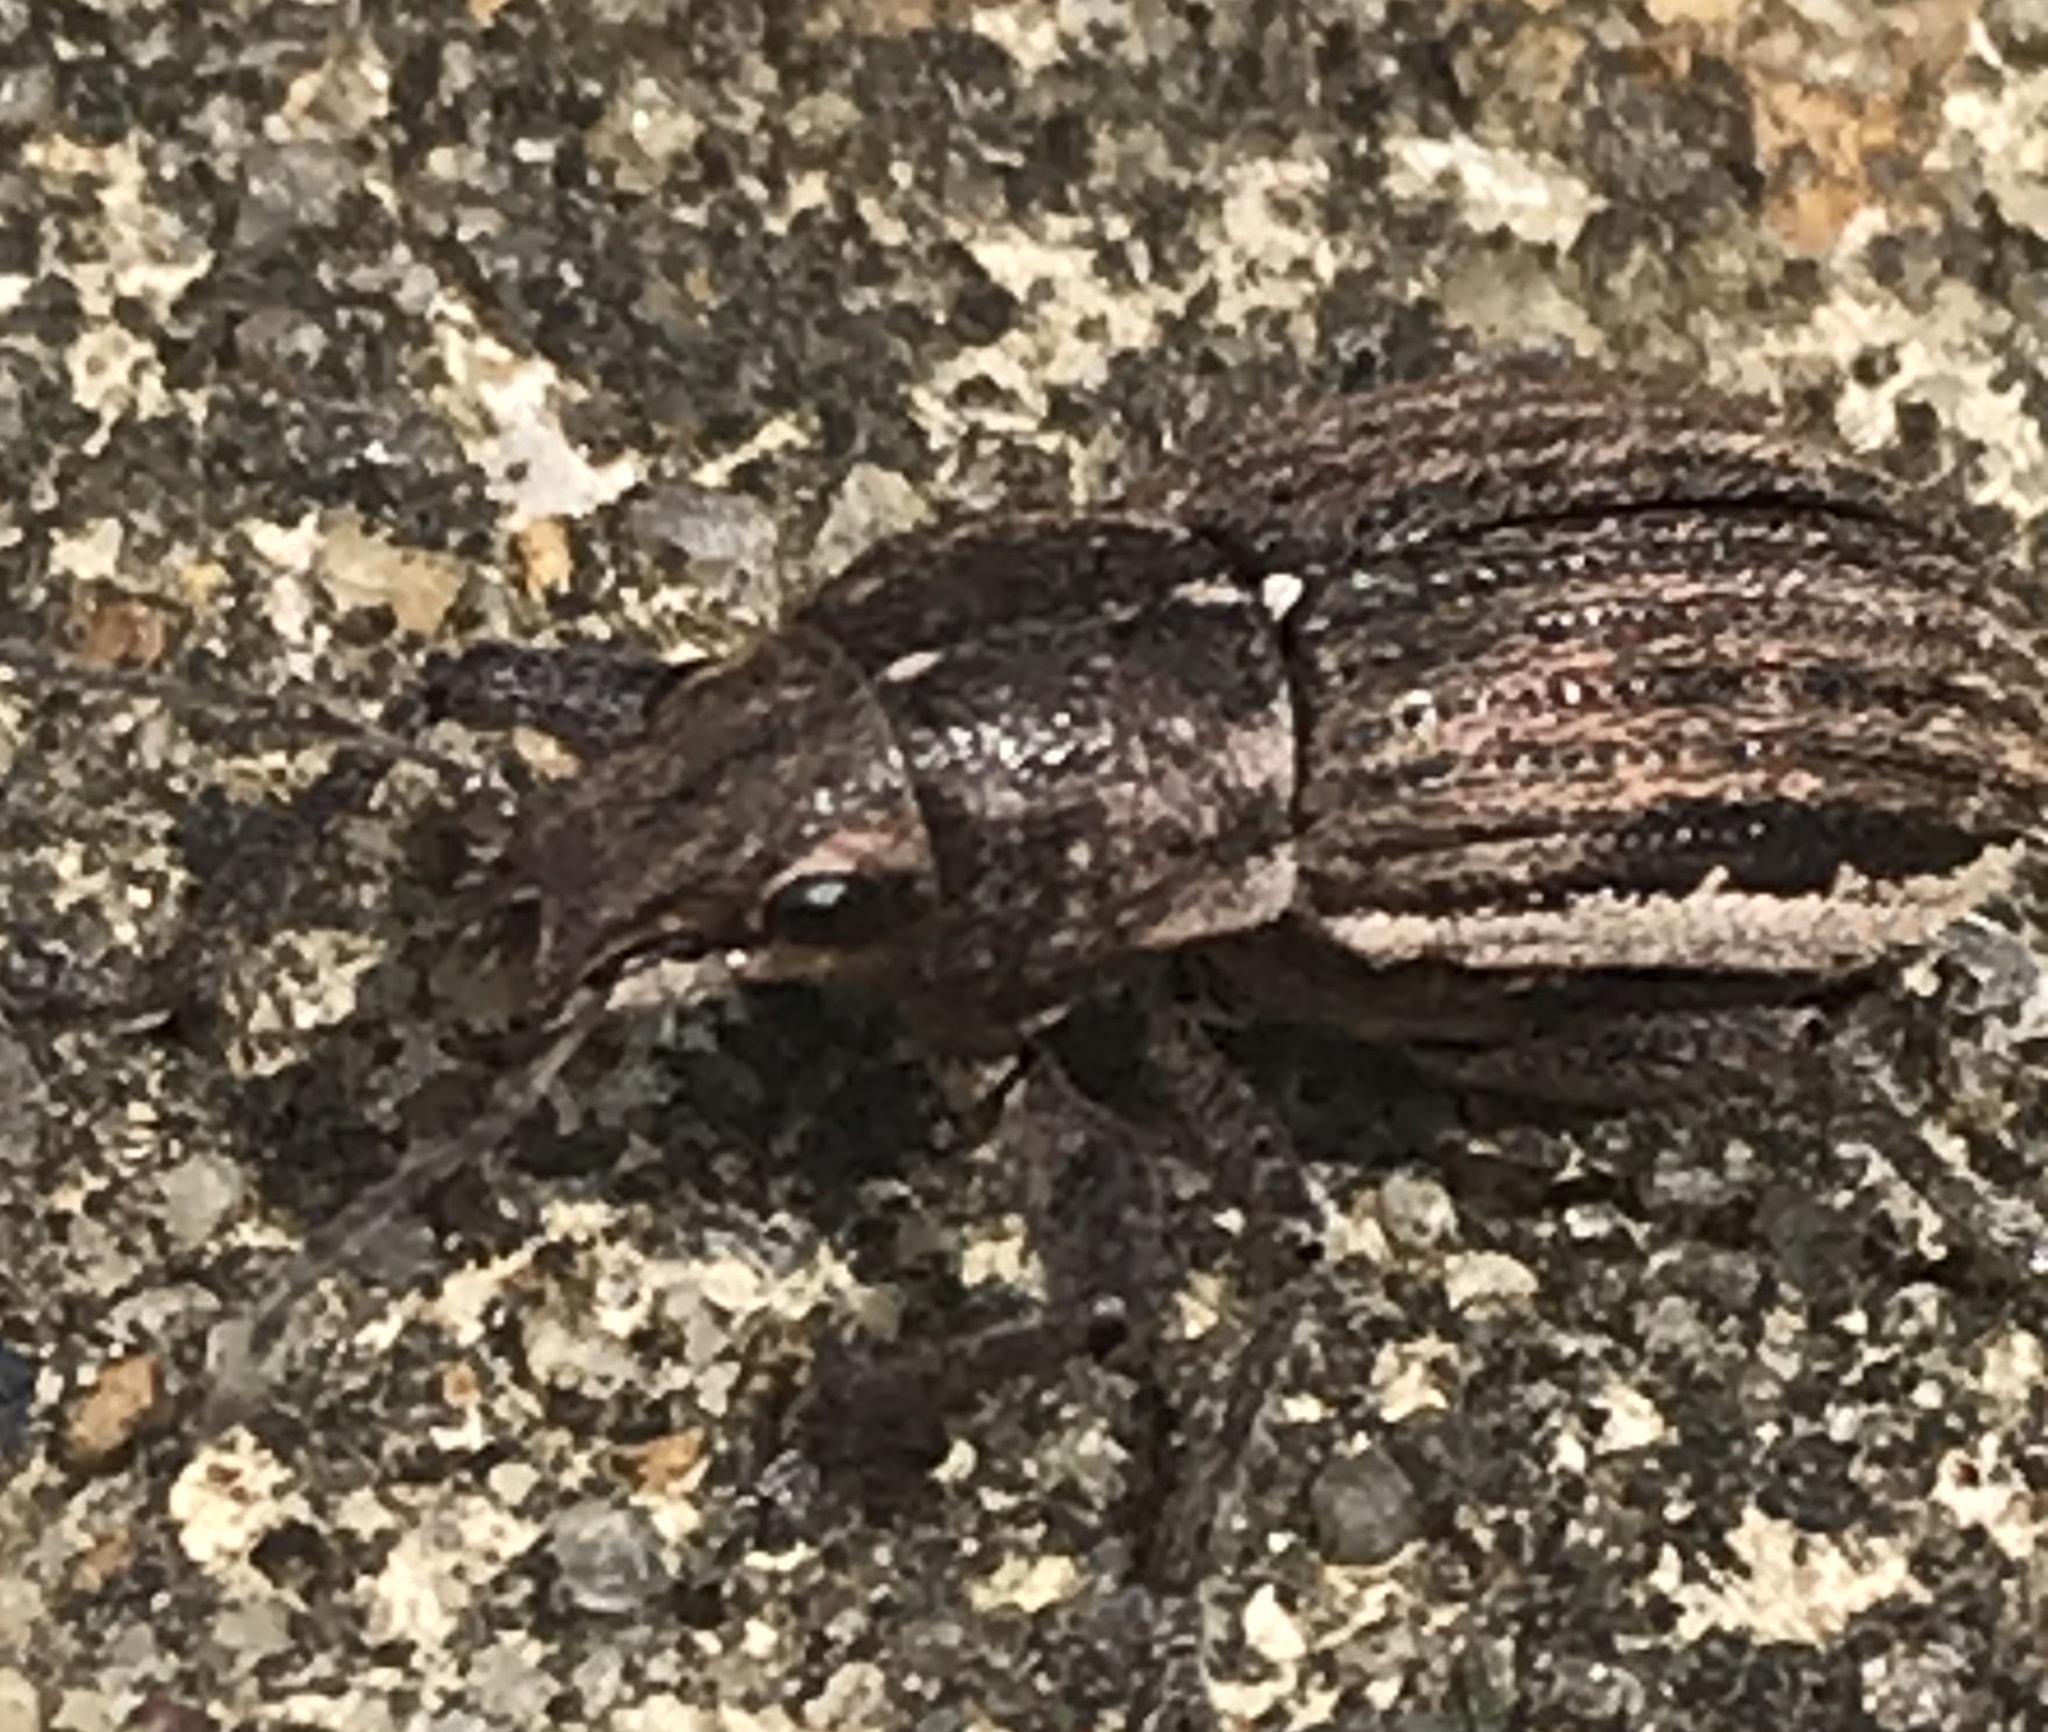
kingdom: Animalia
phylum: Arthropoda
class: Insecta
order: Coleoptera
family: Curculionidae
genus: Naupactus
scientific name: Naupactus leucoloma
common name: Whitefringed beetle
